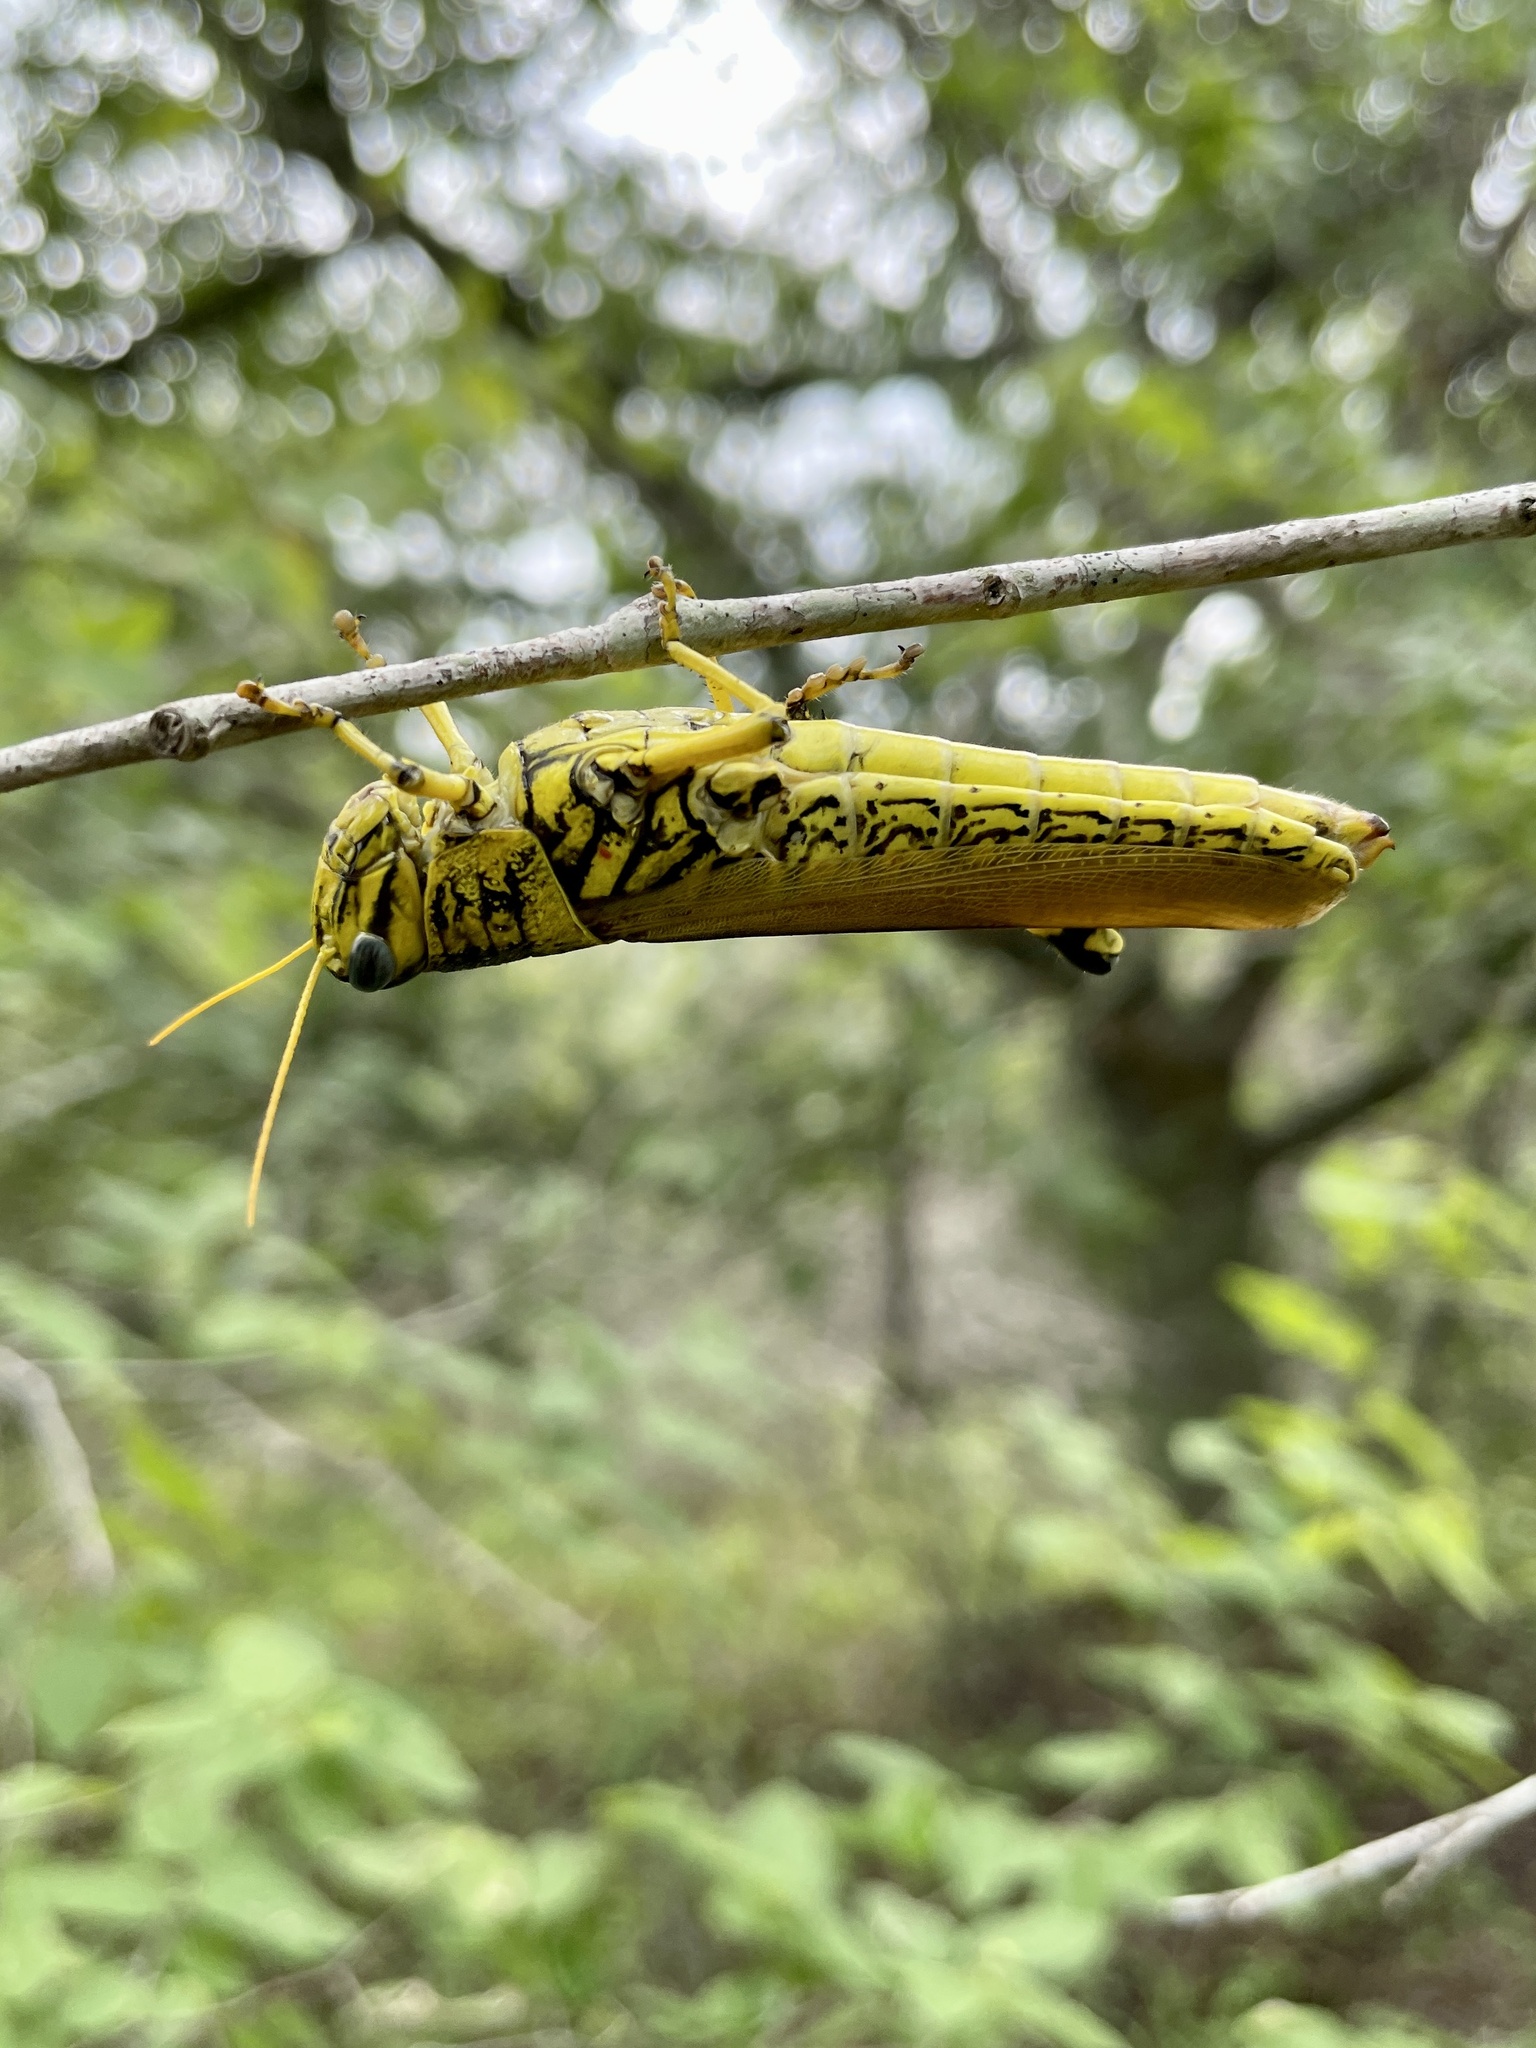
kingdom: Animalia
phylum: Arthropoda
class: Insecta
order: Orthoptera
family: Acrididae
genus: Schistocerca
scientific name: Schistocerca lineata
